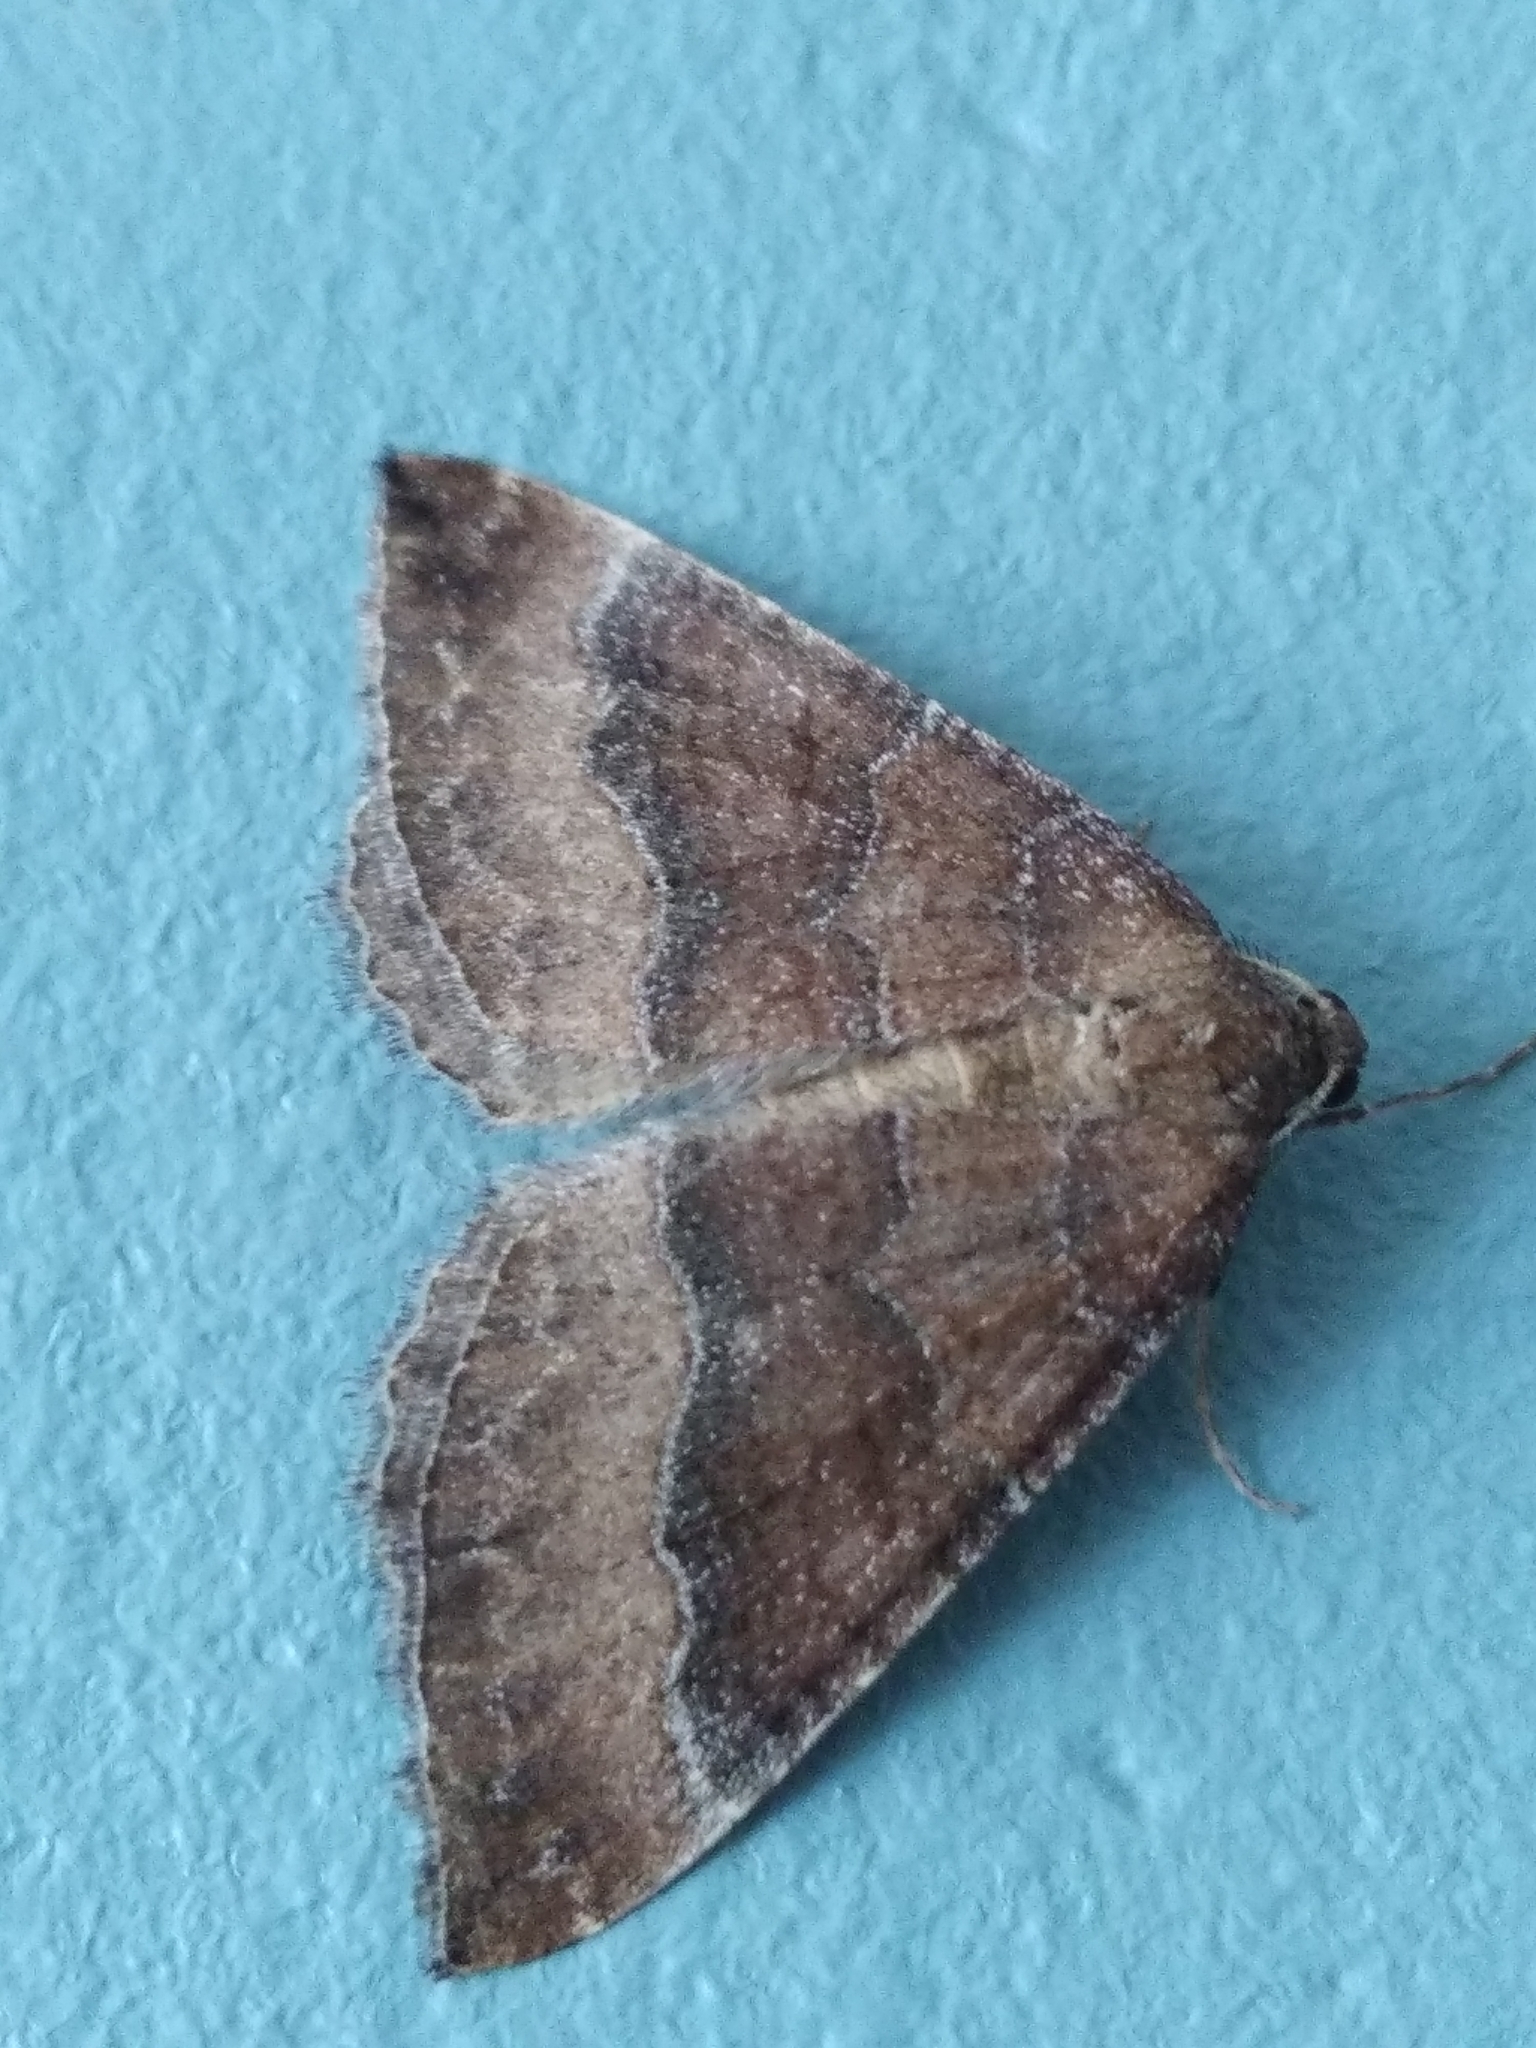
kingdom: Animalia
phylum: Arthropoda
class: Insecta
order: Lepidoptera
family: Geometridae
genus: Larentia
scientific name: Larentia clavaria
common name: Mallow
